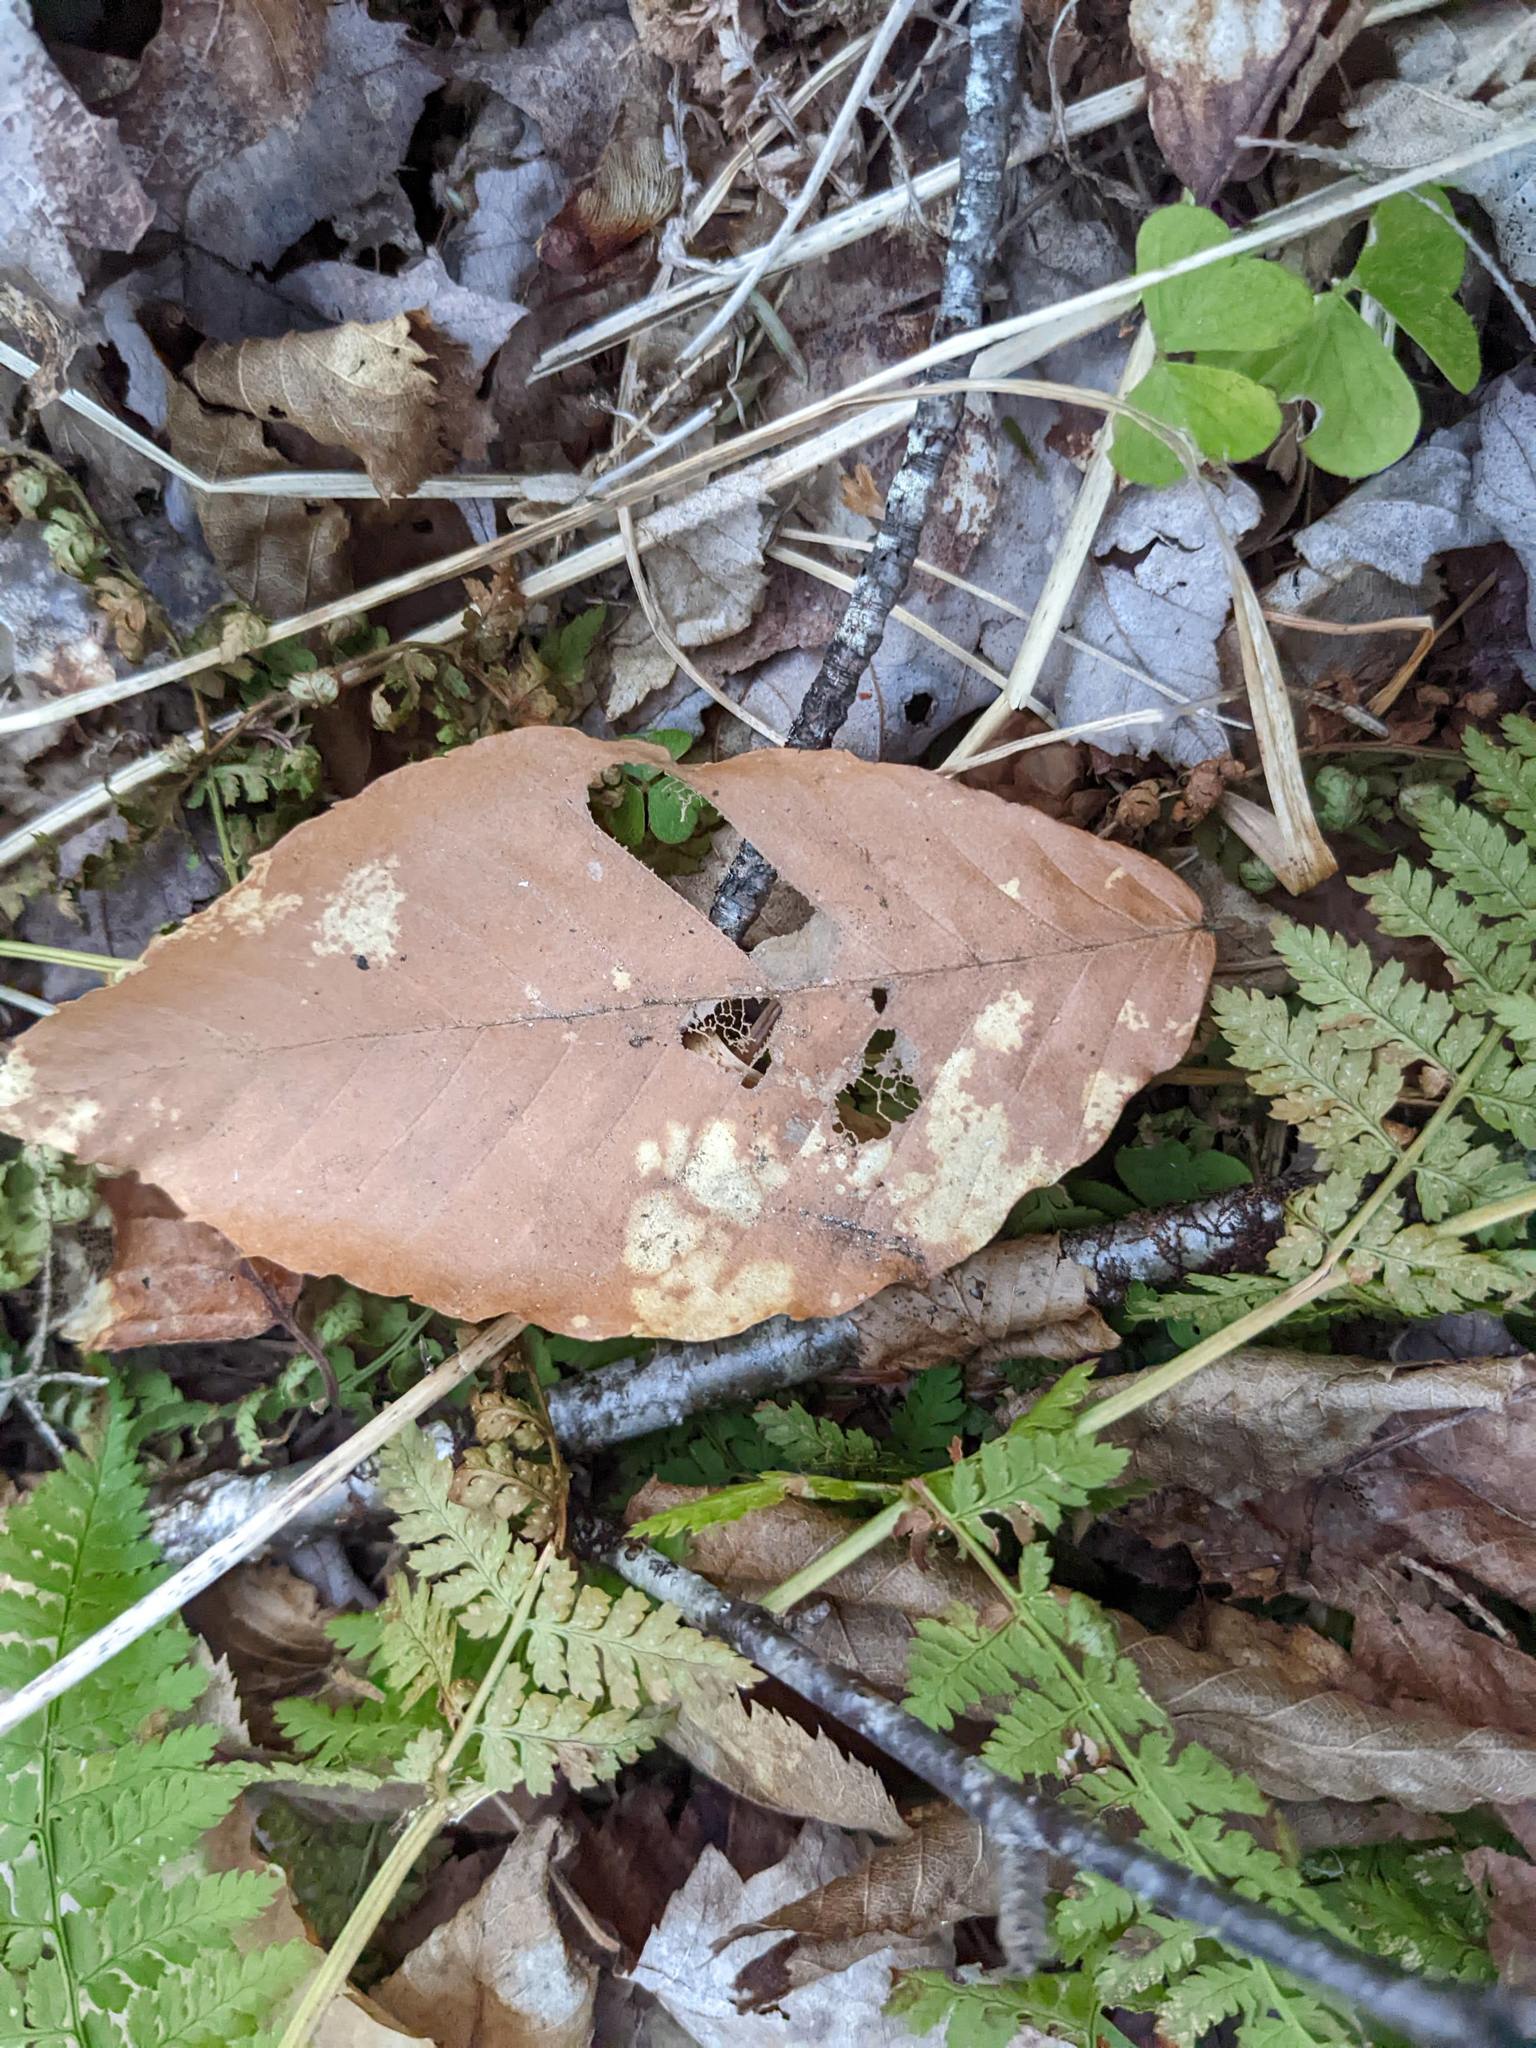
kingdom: Plantae
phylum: Tracheophyta
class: Magnoliopsida
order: Fagales
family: Fagaceae
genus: Fagus
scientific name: Fagus grandifolia
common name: American beech
